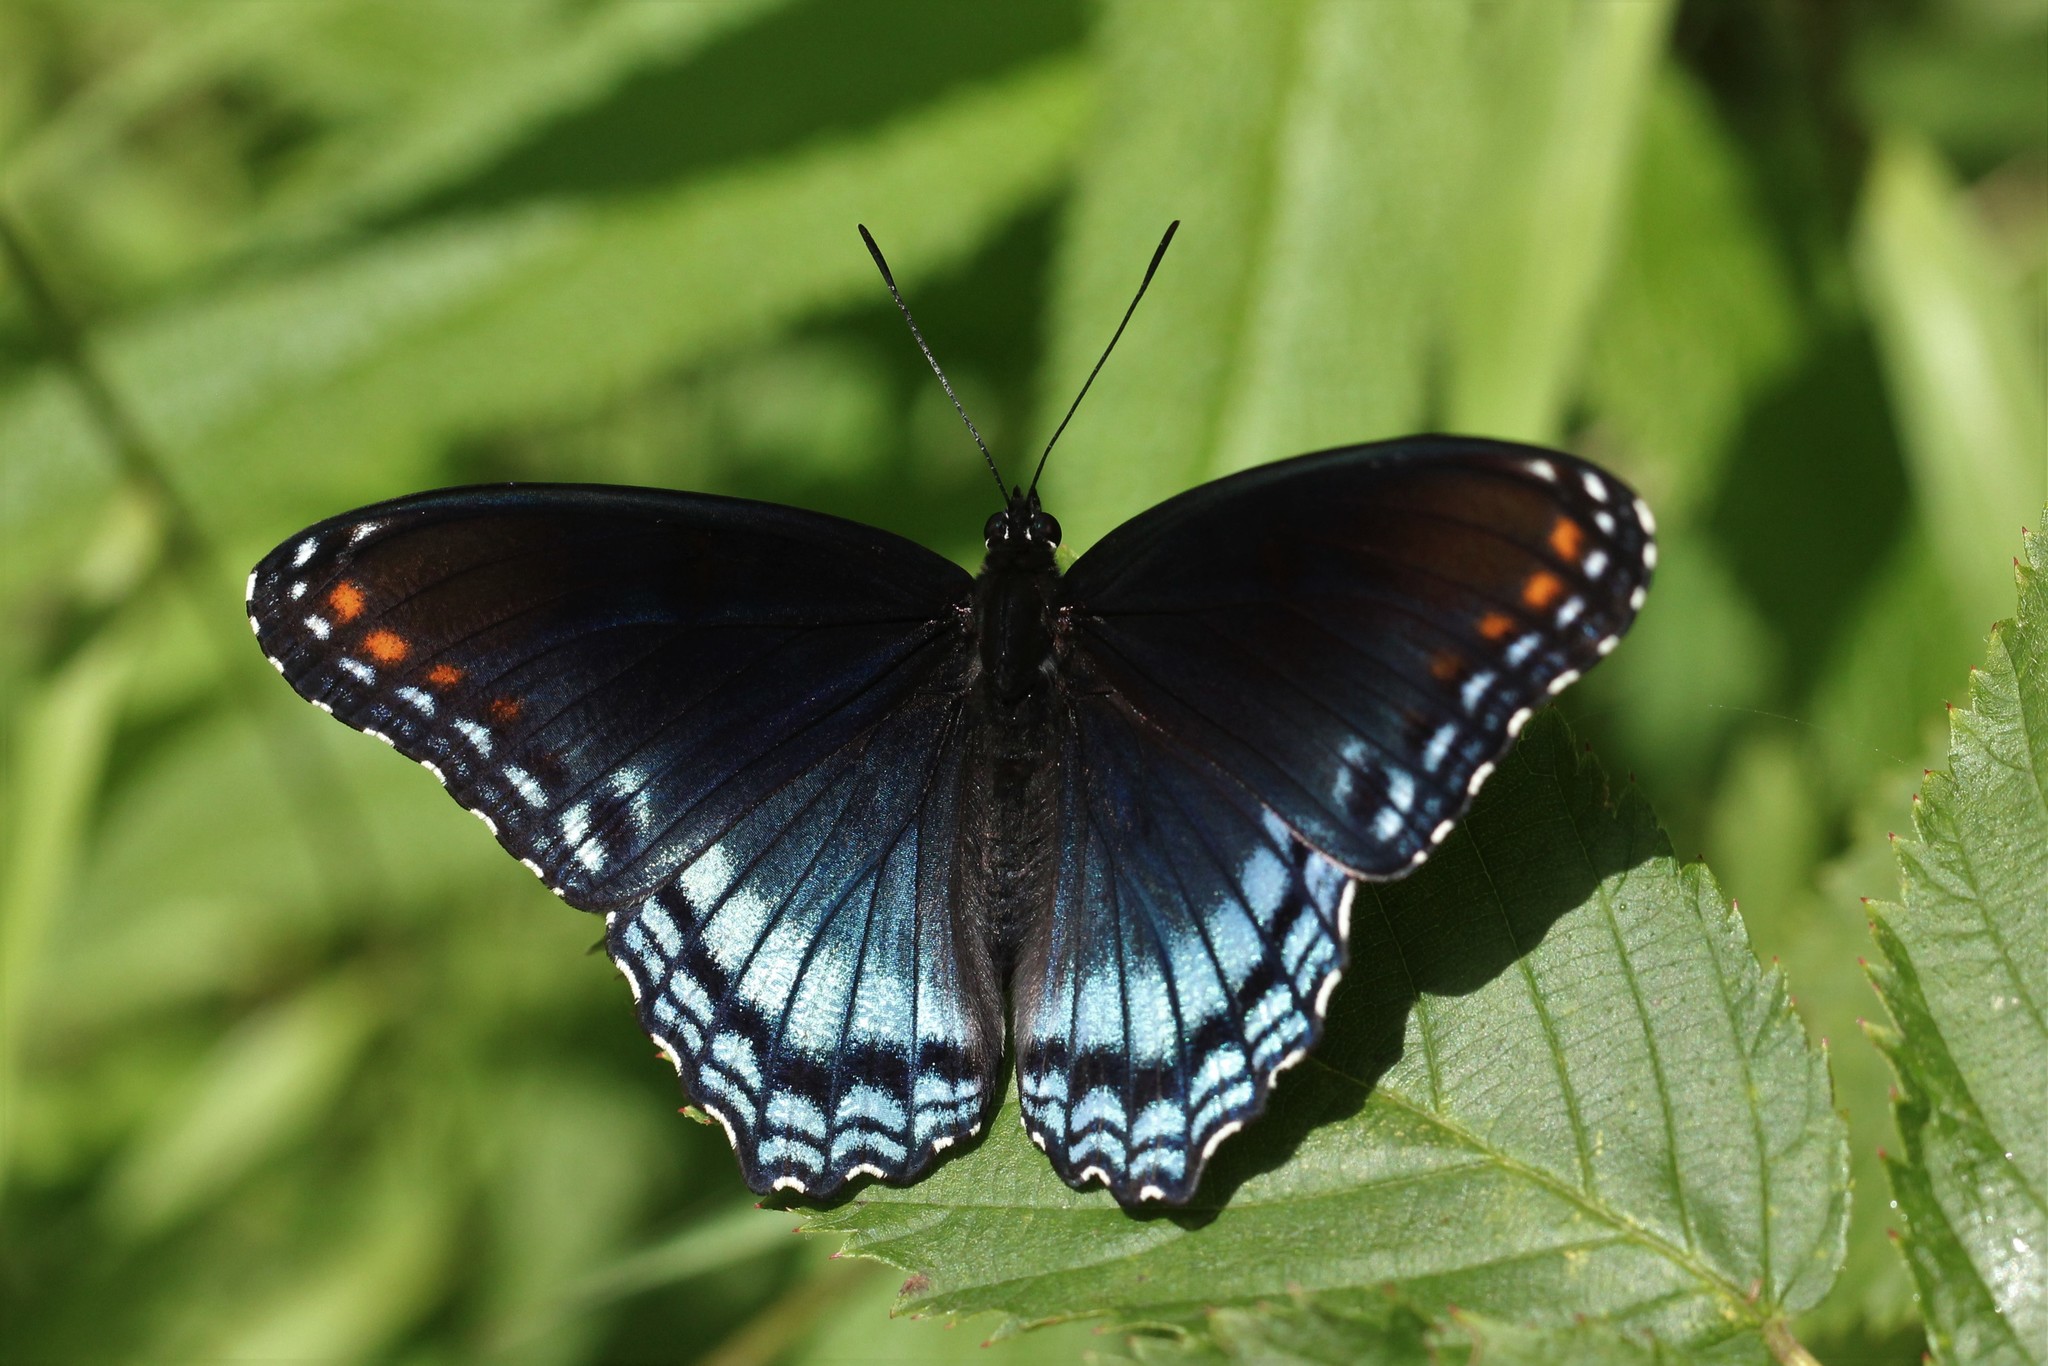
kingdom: Animalia
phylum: Arthropoda
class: Insecta
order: Lepidoptera
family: Nymphalidae
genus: Limenitis
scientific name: Limenitis astyanax
